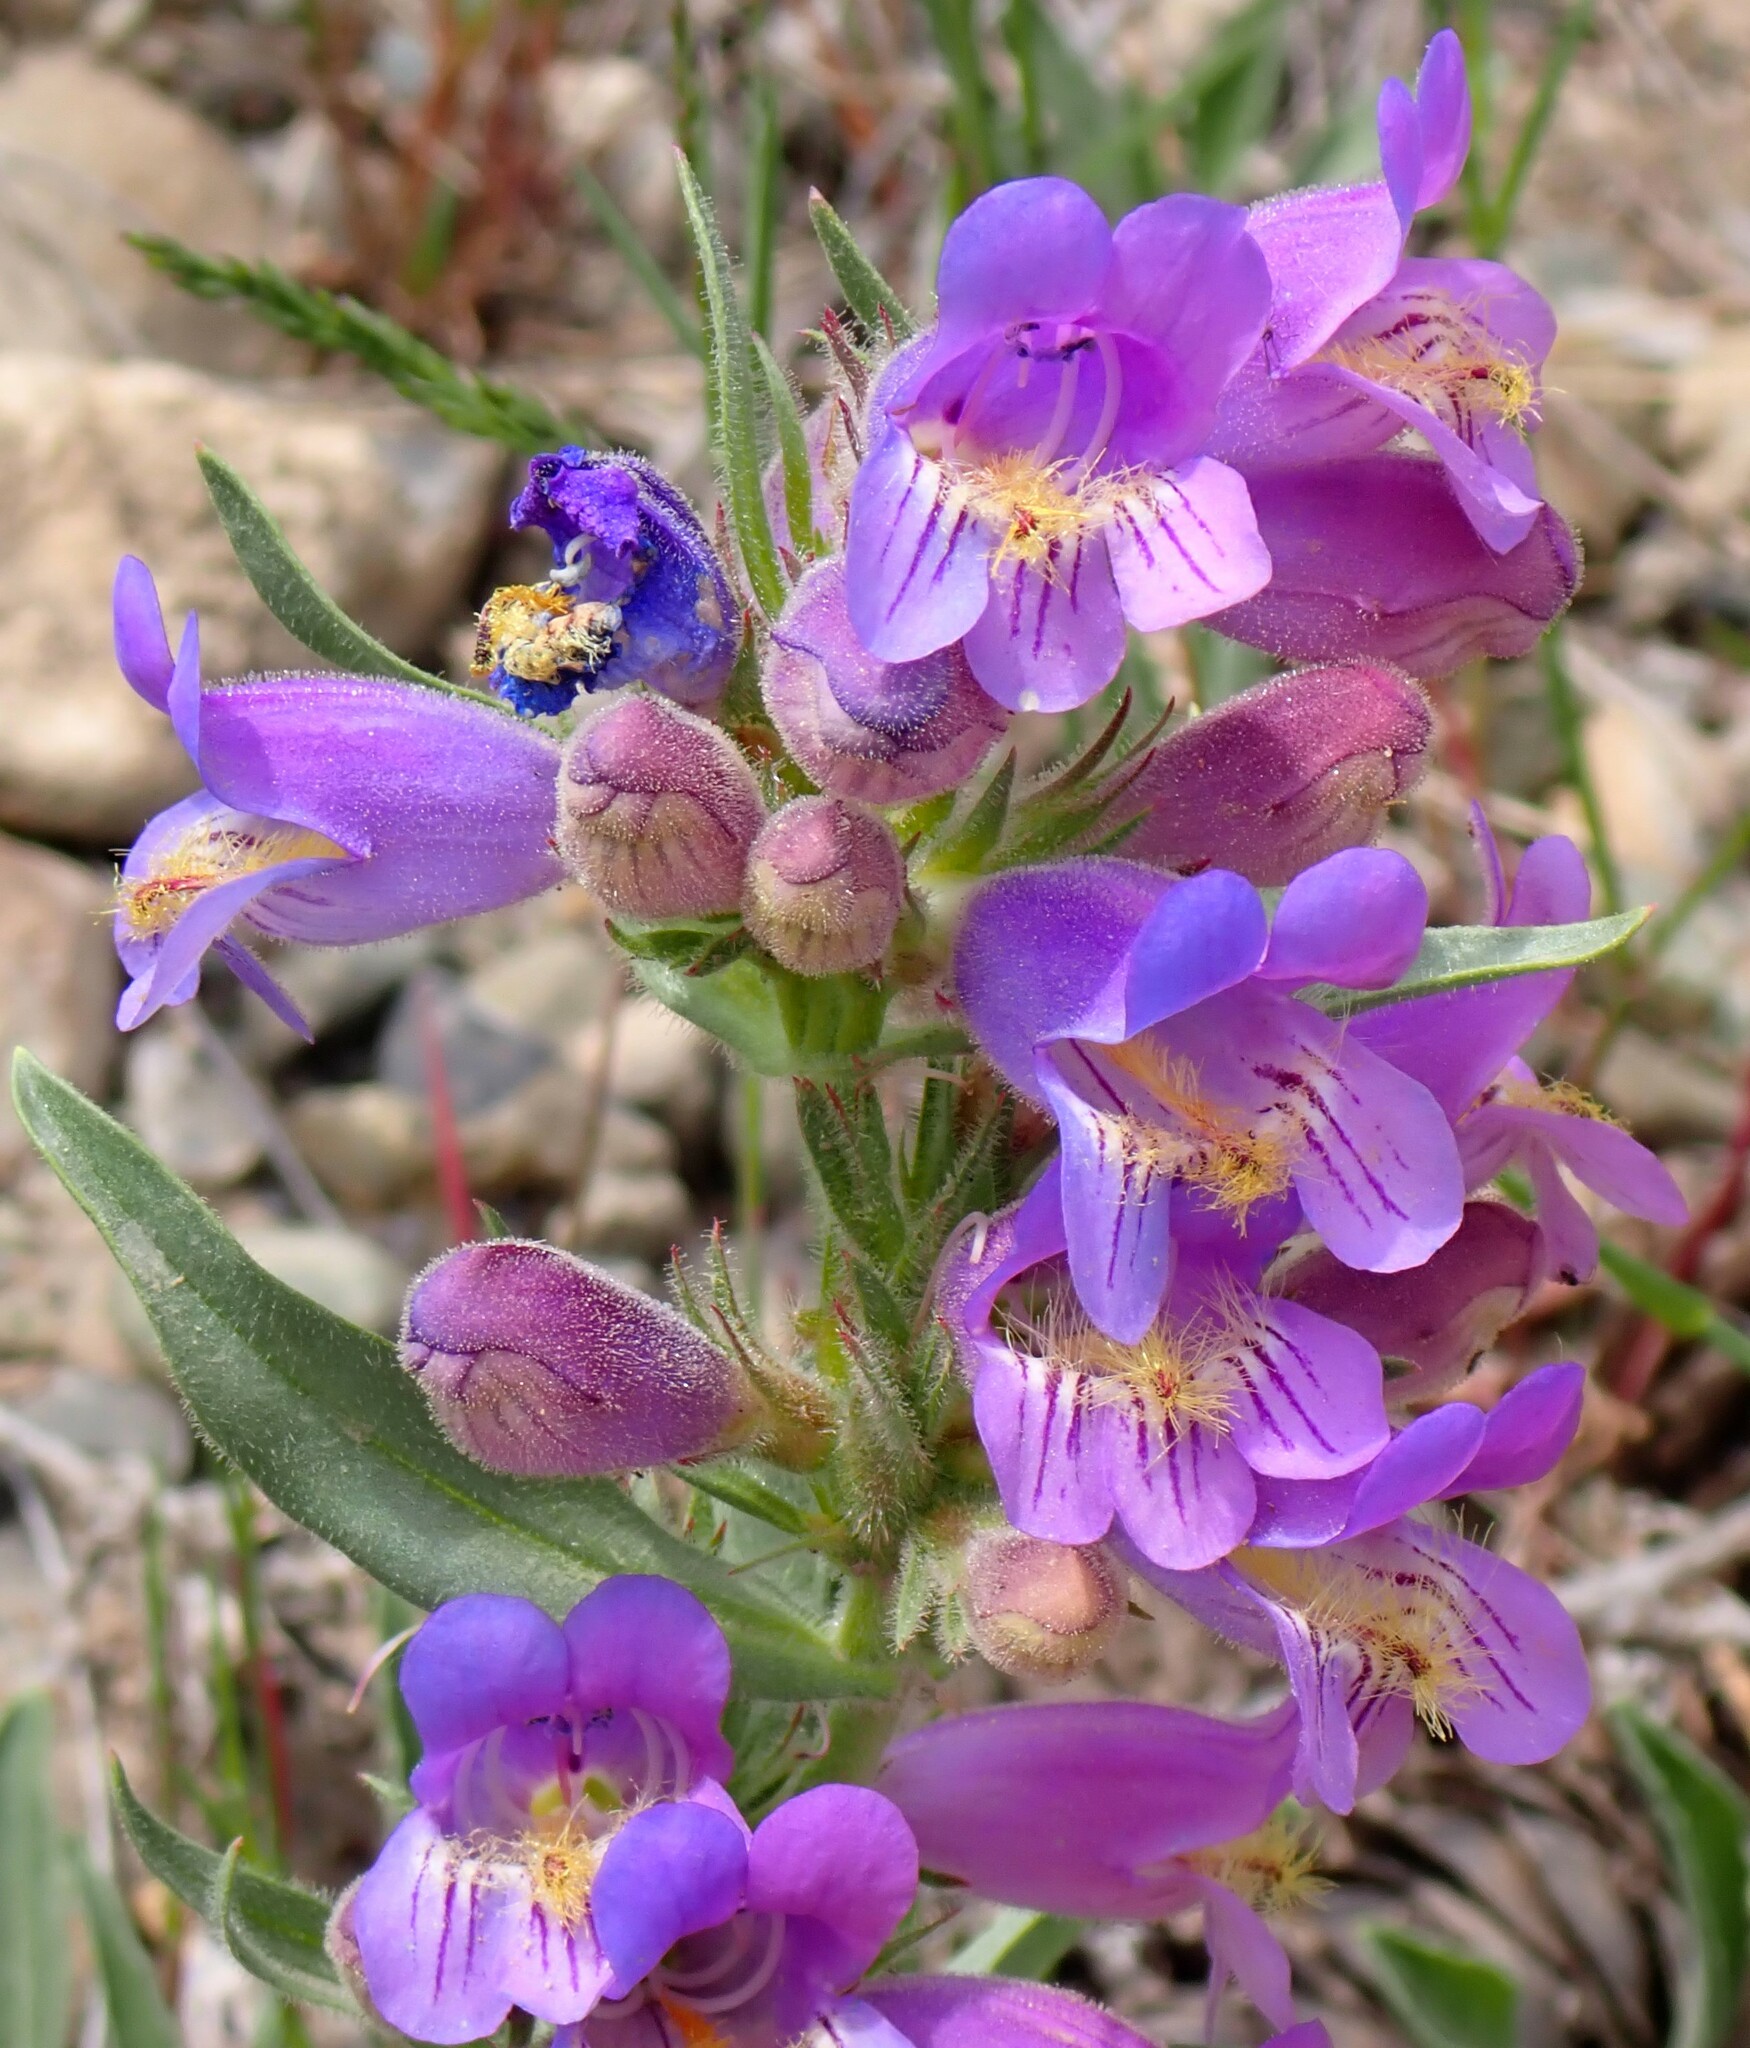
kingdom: Plantae
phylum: Tracheophyta
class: Magnoliopsida
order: Lamiales
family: Plantaginaceae
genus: Penstemon
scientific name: Penstemon eriantherus
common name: Crested beardtongue
